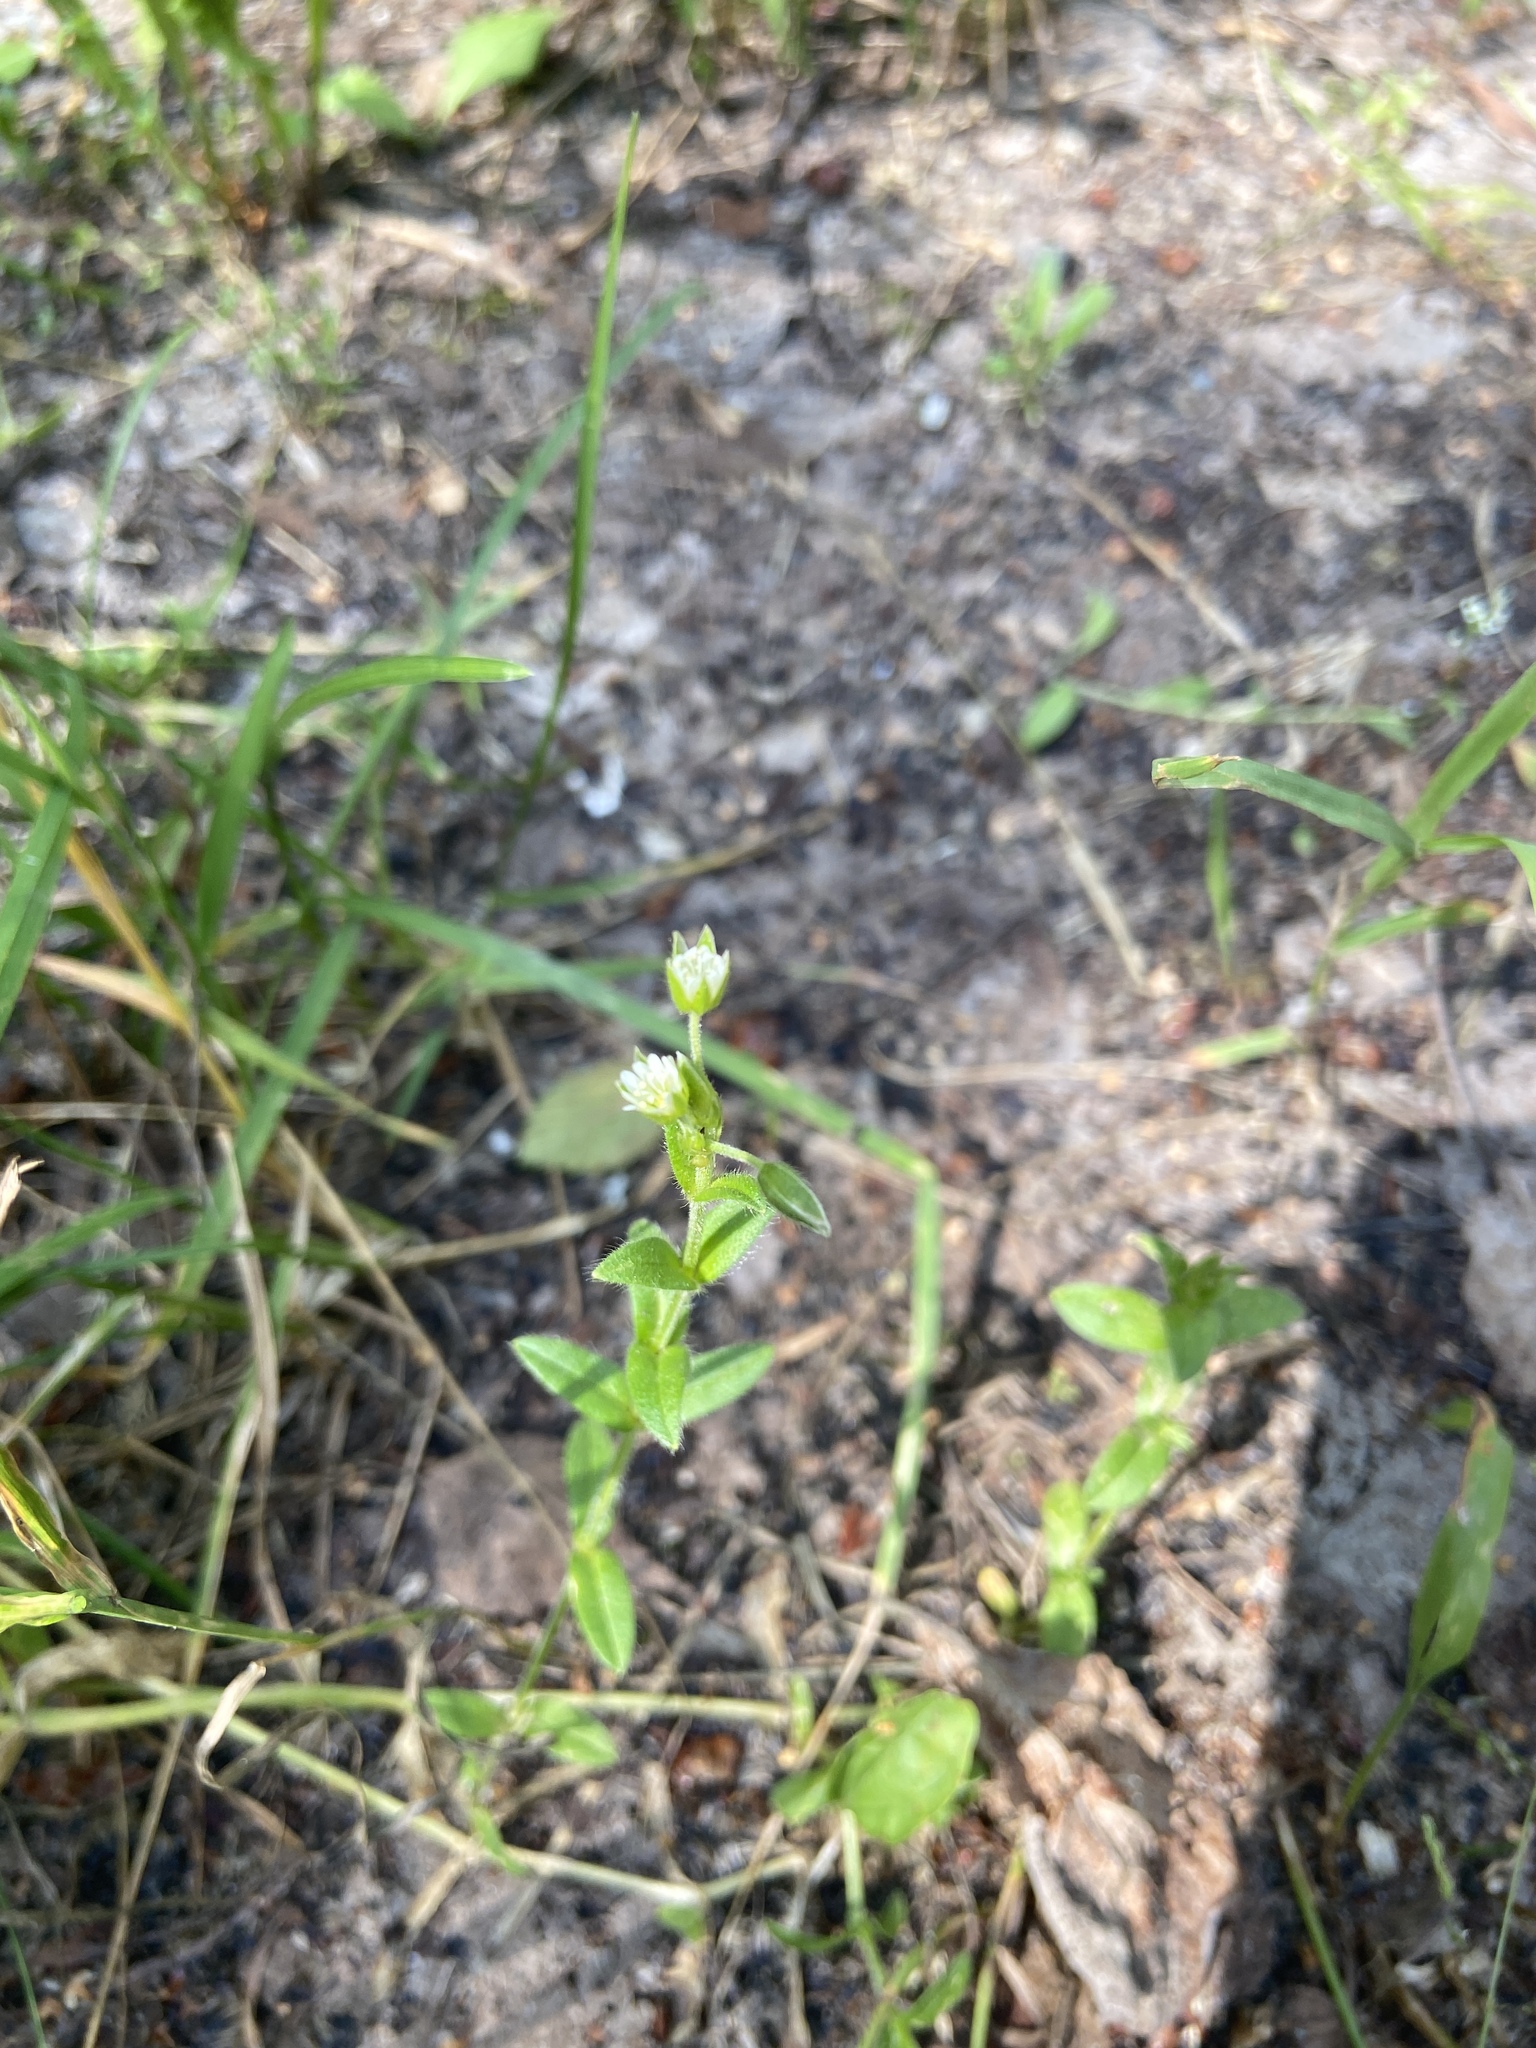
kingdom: Plantae
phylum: Tracheophyta
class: Magnoliopsida
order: Caryophyllales
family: Caryophyllaceae
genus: Cerastium
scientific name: Cerastium holosteoides
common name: Big chickweed
